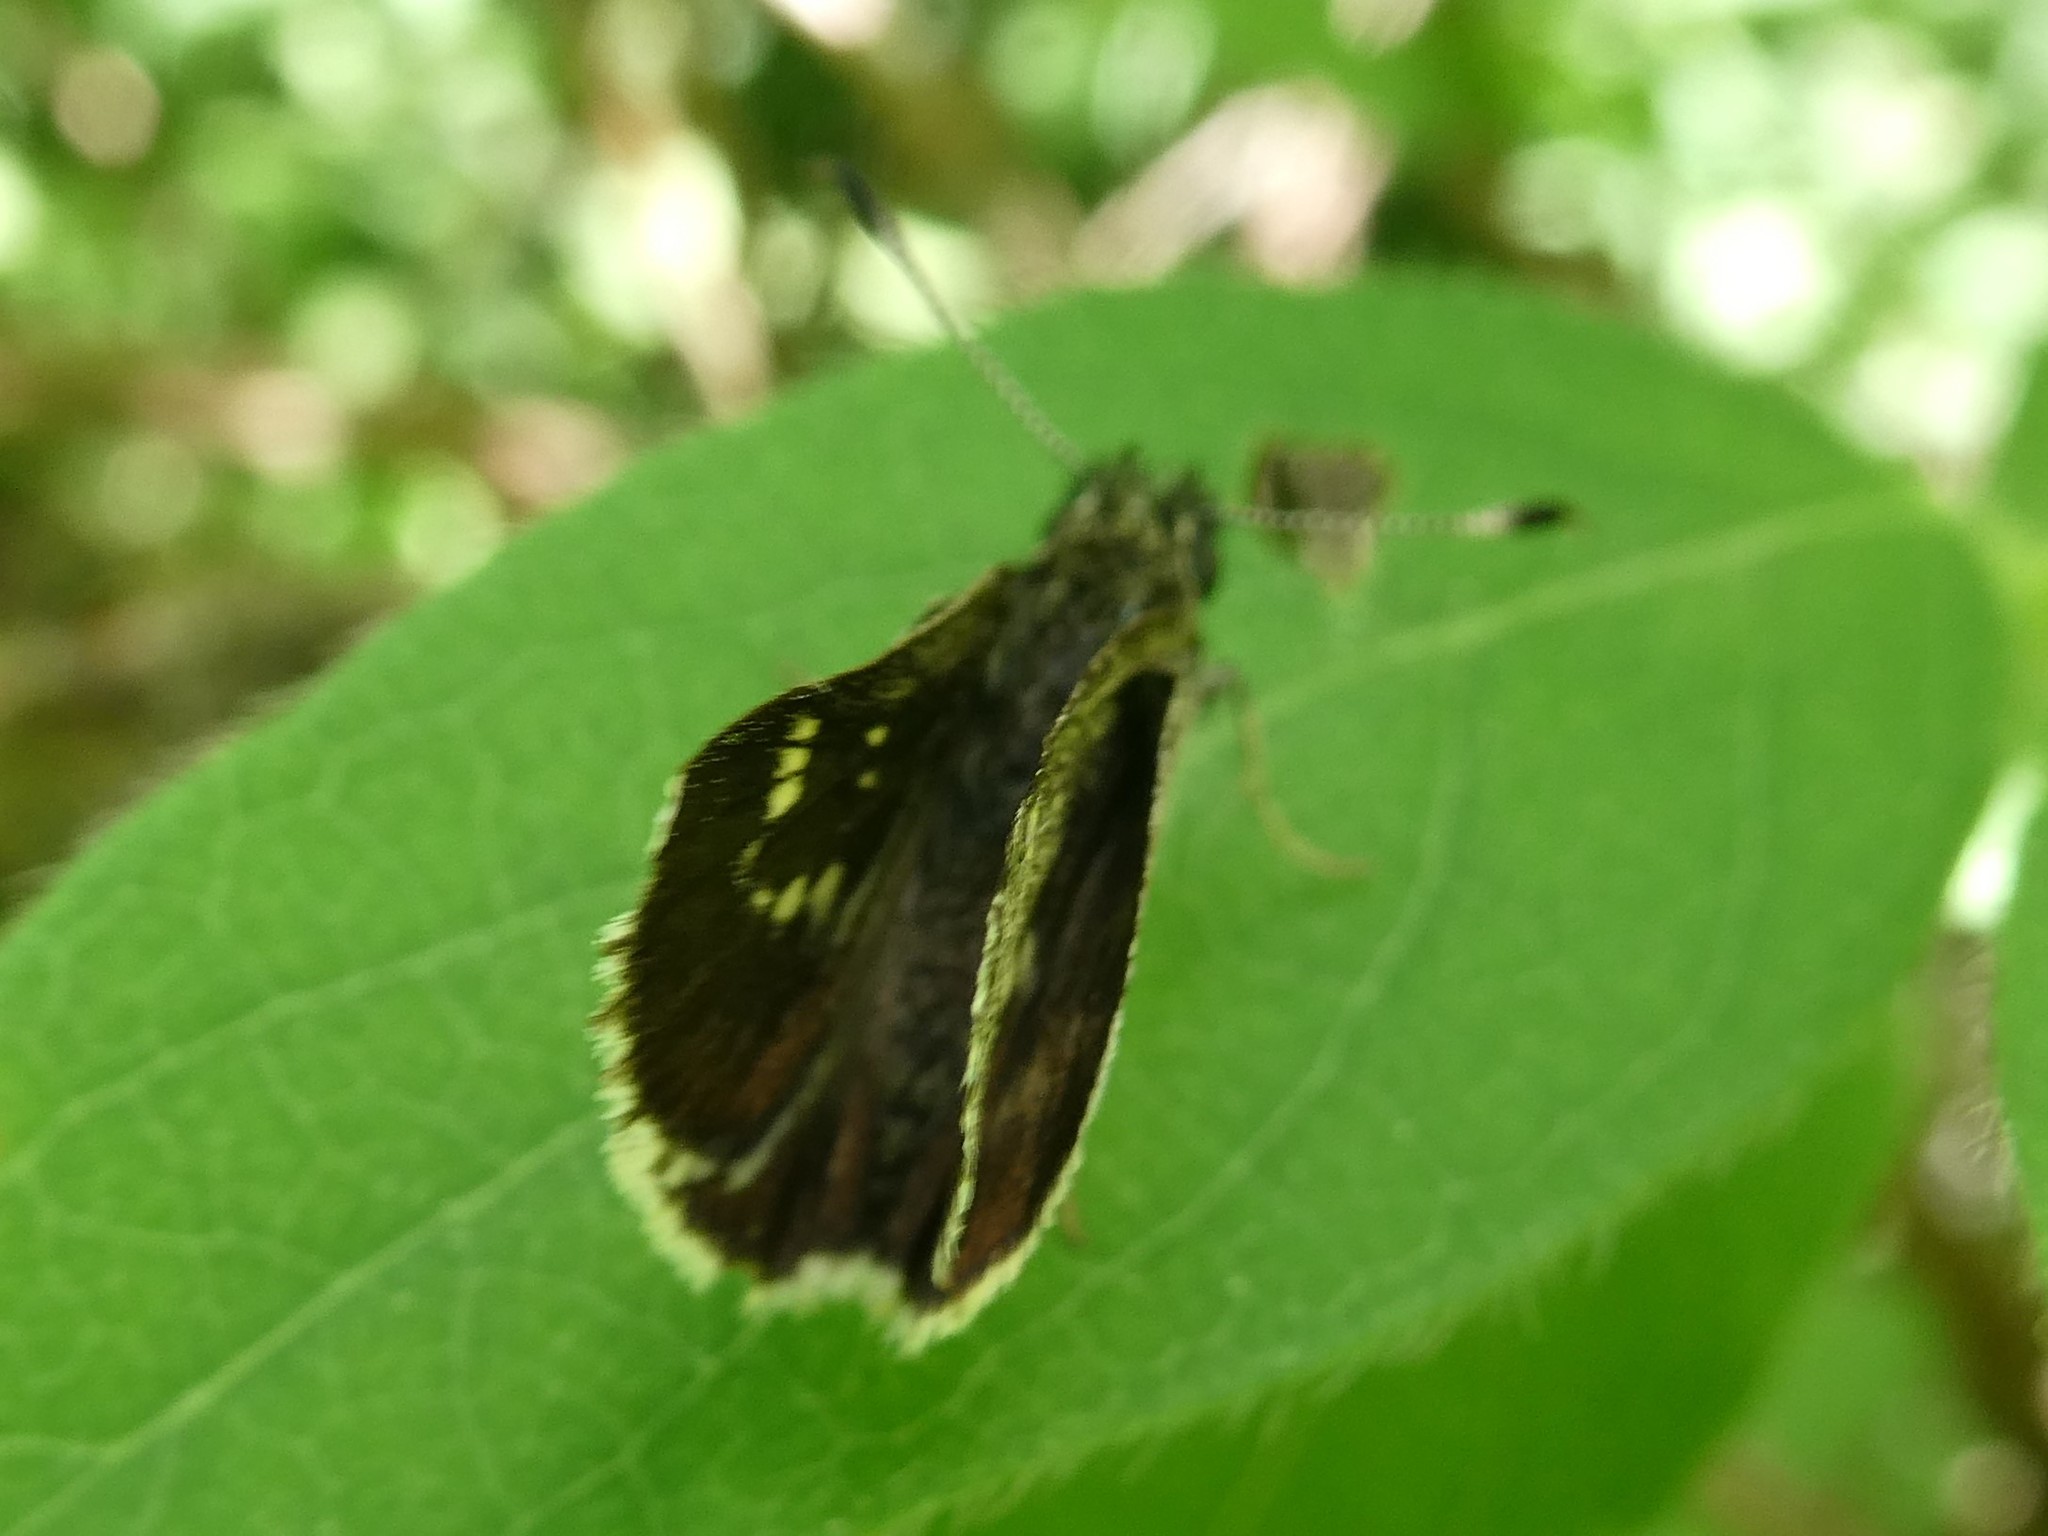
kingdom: Animalia
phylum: Arthropoda
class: Insecta
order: Lepidoptera
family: Hesperiidae
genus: Mastor
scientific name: Mastor hegon
